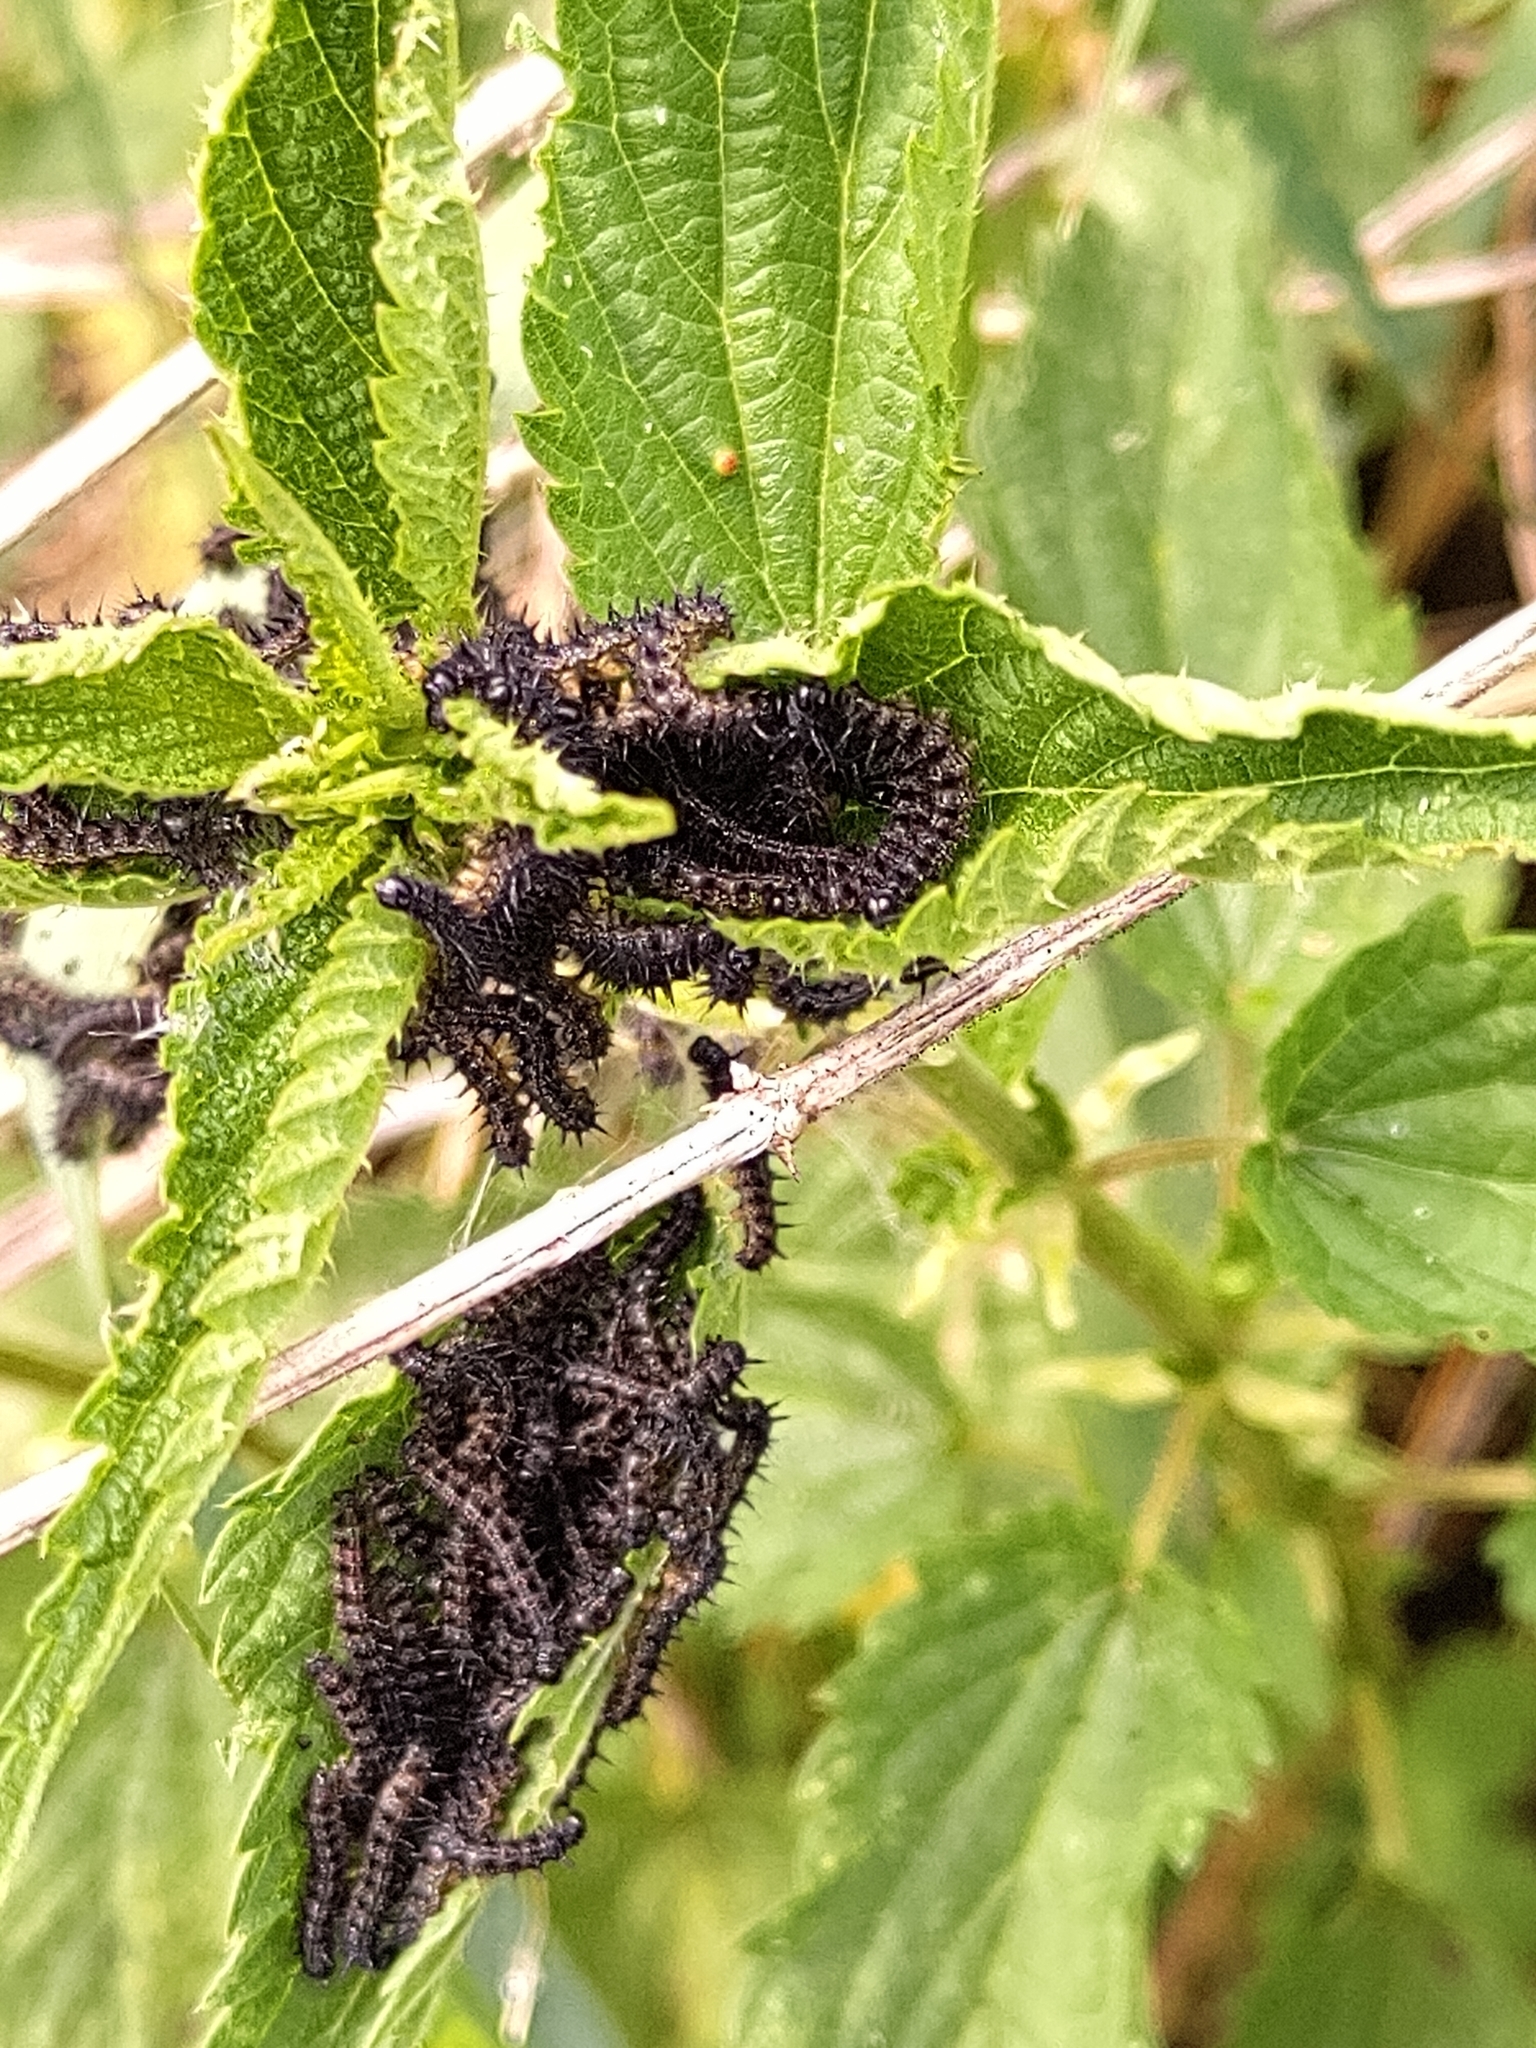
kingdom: Animalia
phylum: Arthropoda
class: Insecta
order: Lepidoptera
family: Nymphalidae
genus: Aglais
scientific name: Aglais io
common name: Peacock
